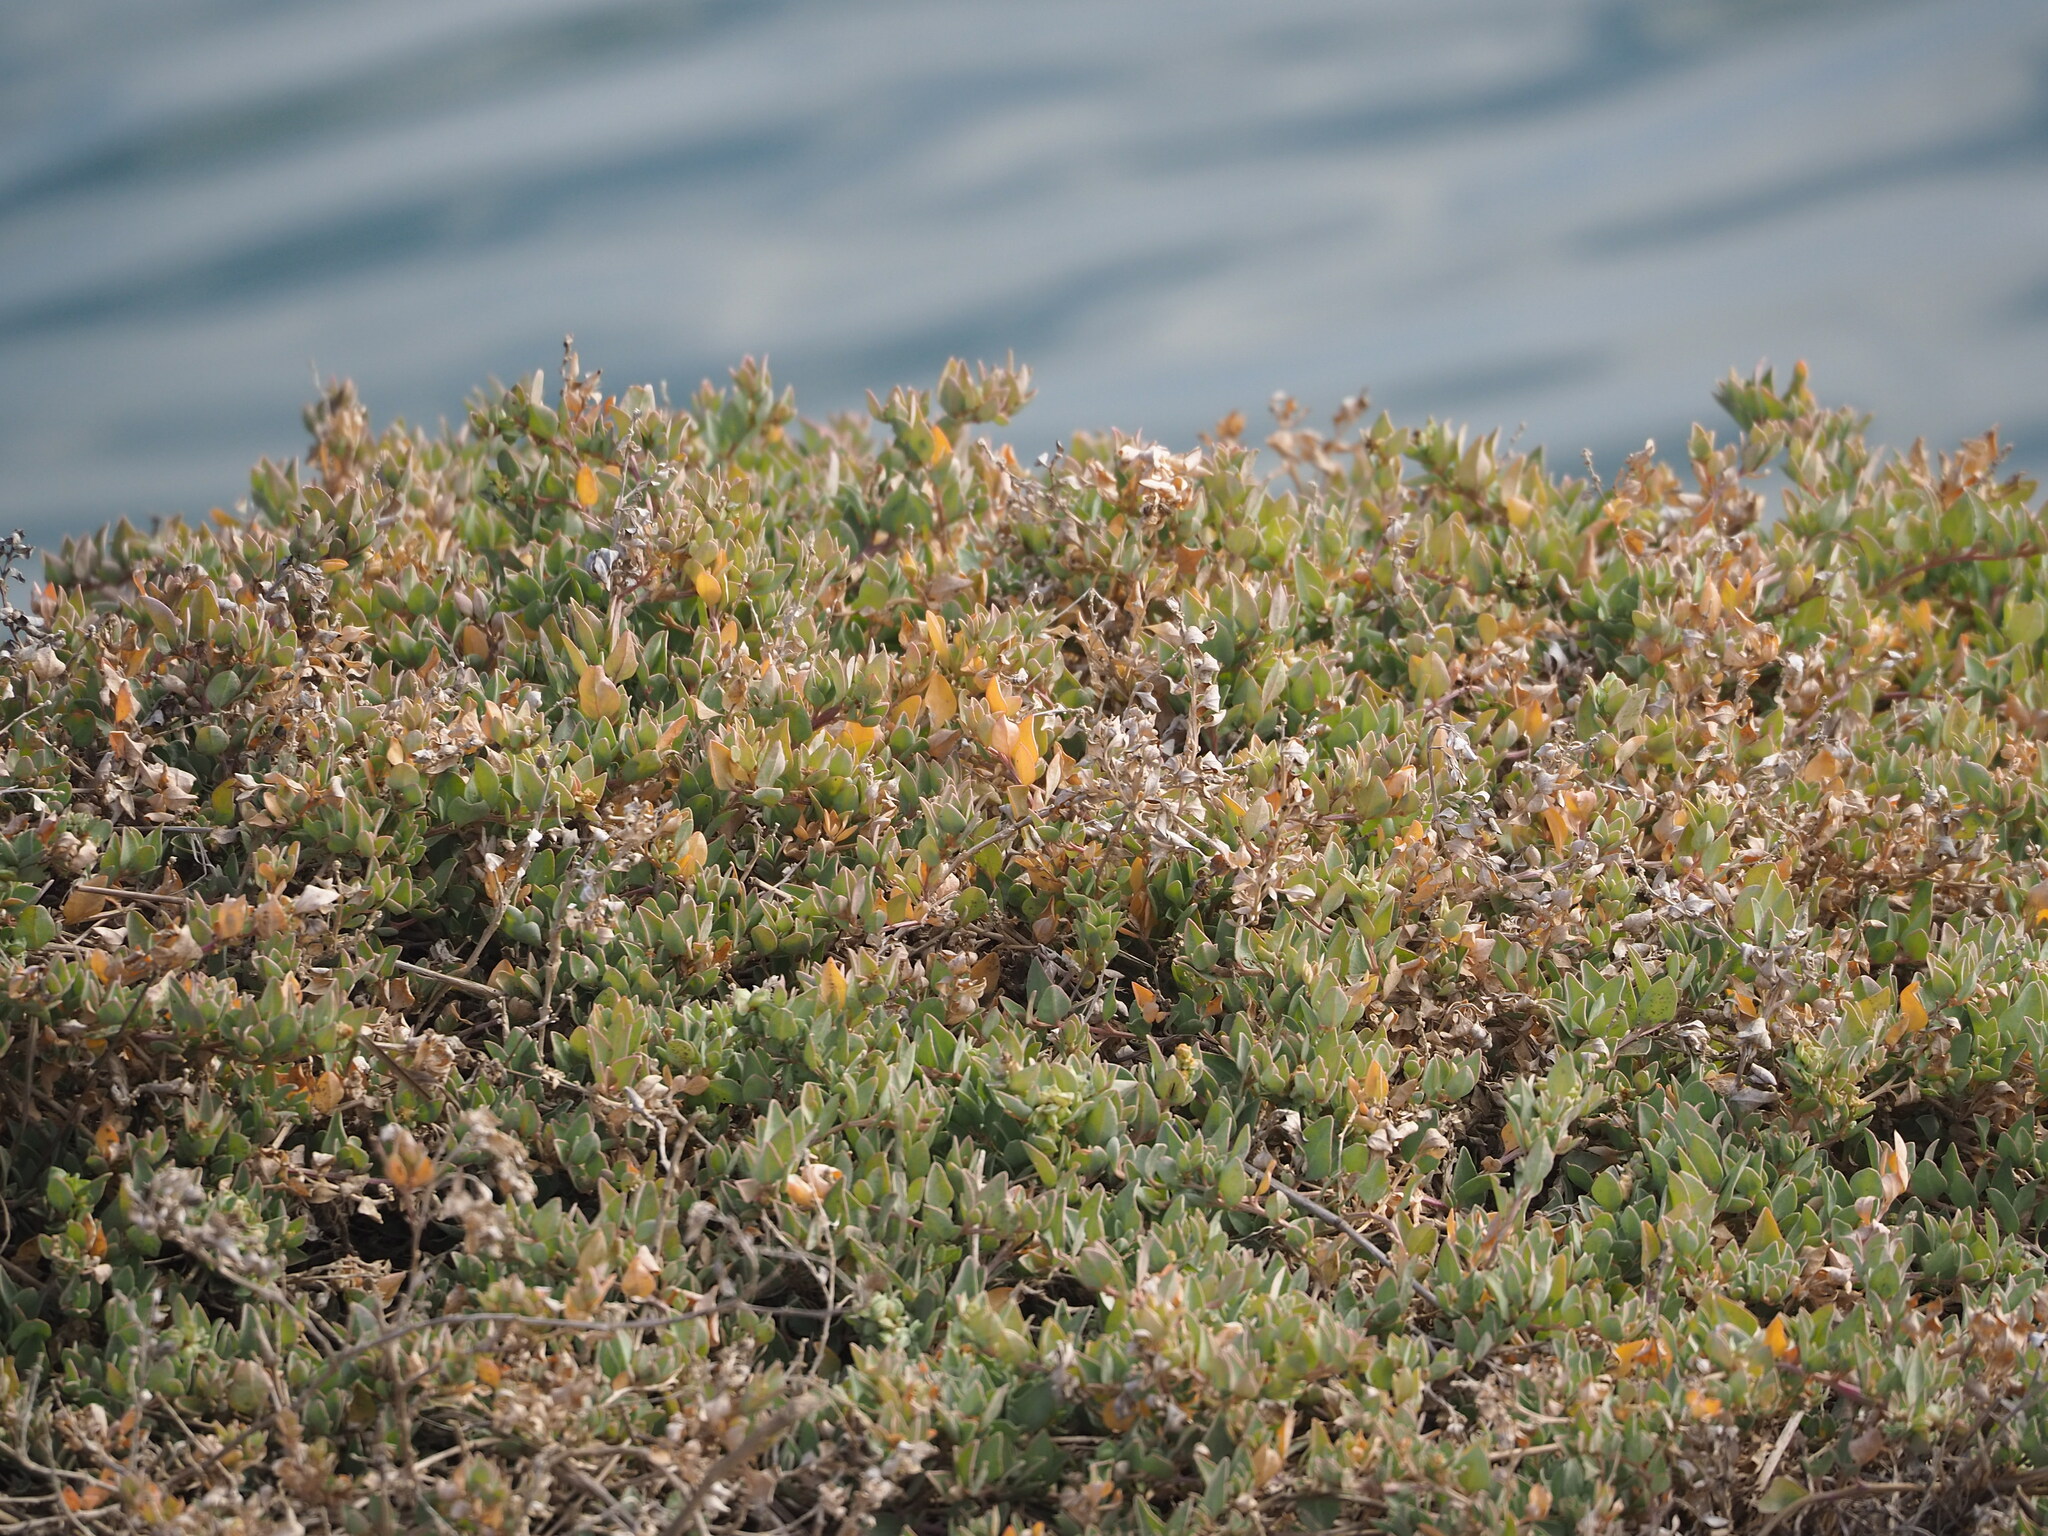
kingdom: Plantae
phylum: Tracheophyta
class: Magnoliopsida
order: Caryophyllales
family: Amaranthaceae
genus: Atriplex
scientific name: Atriplex maximowicziana
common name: Maximowicz's saltbush
